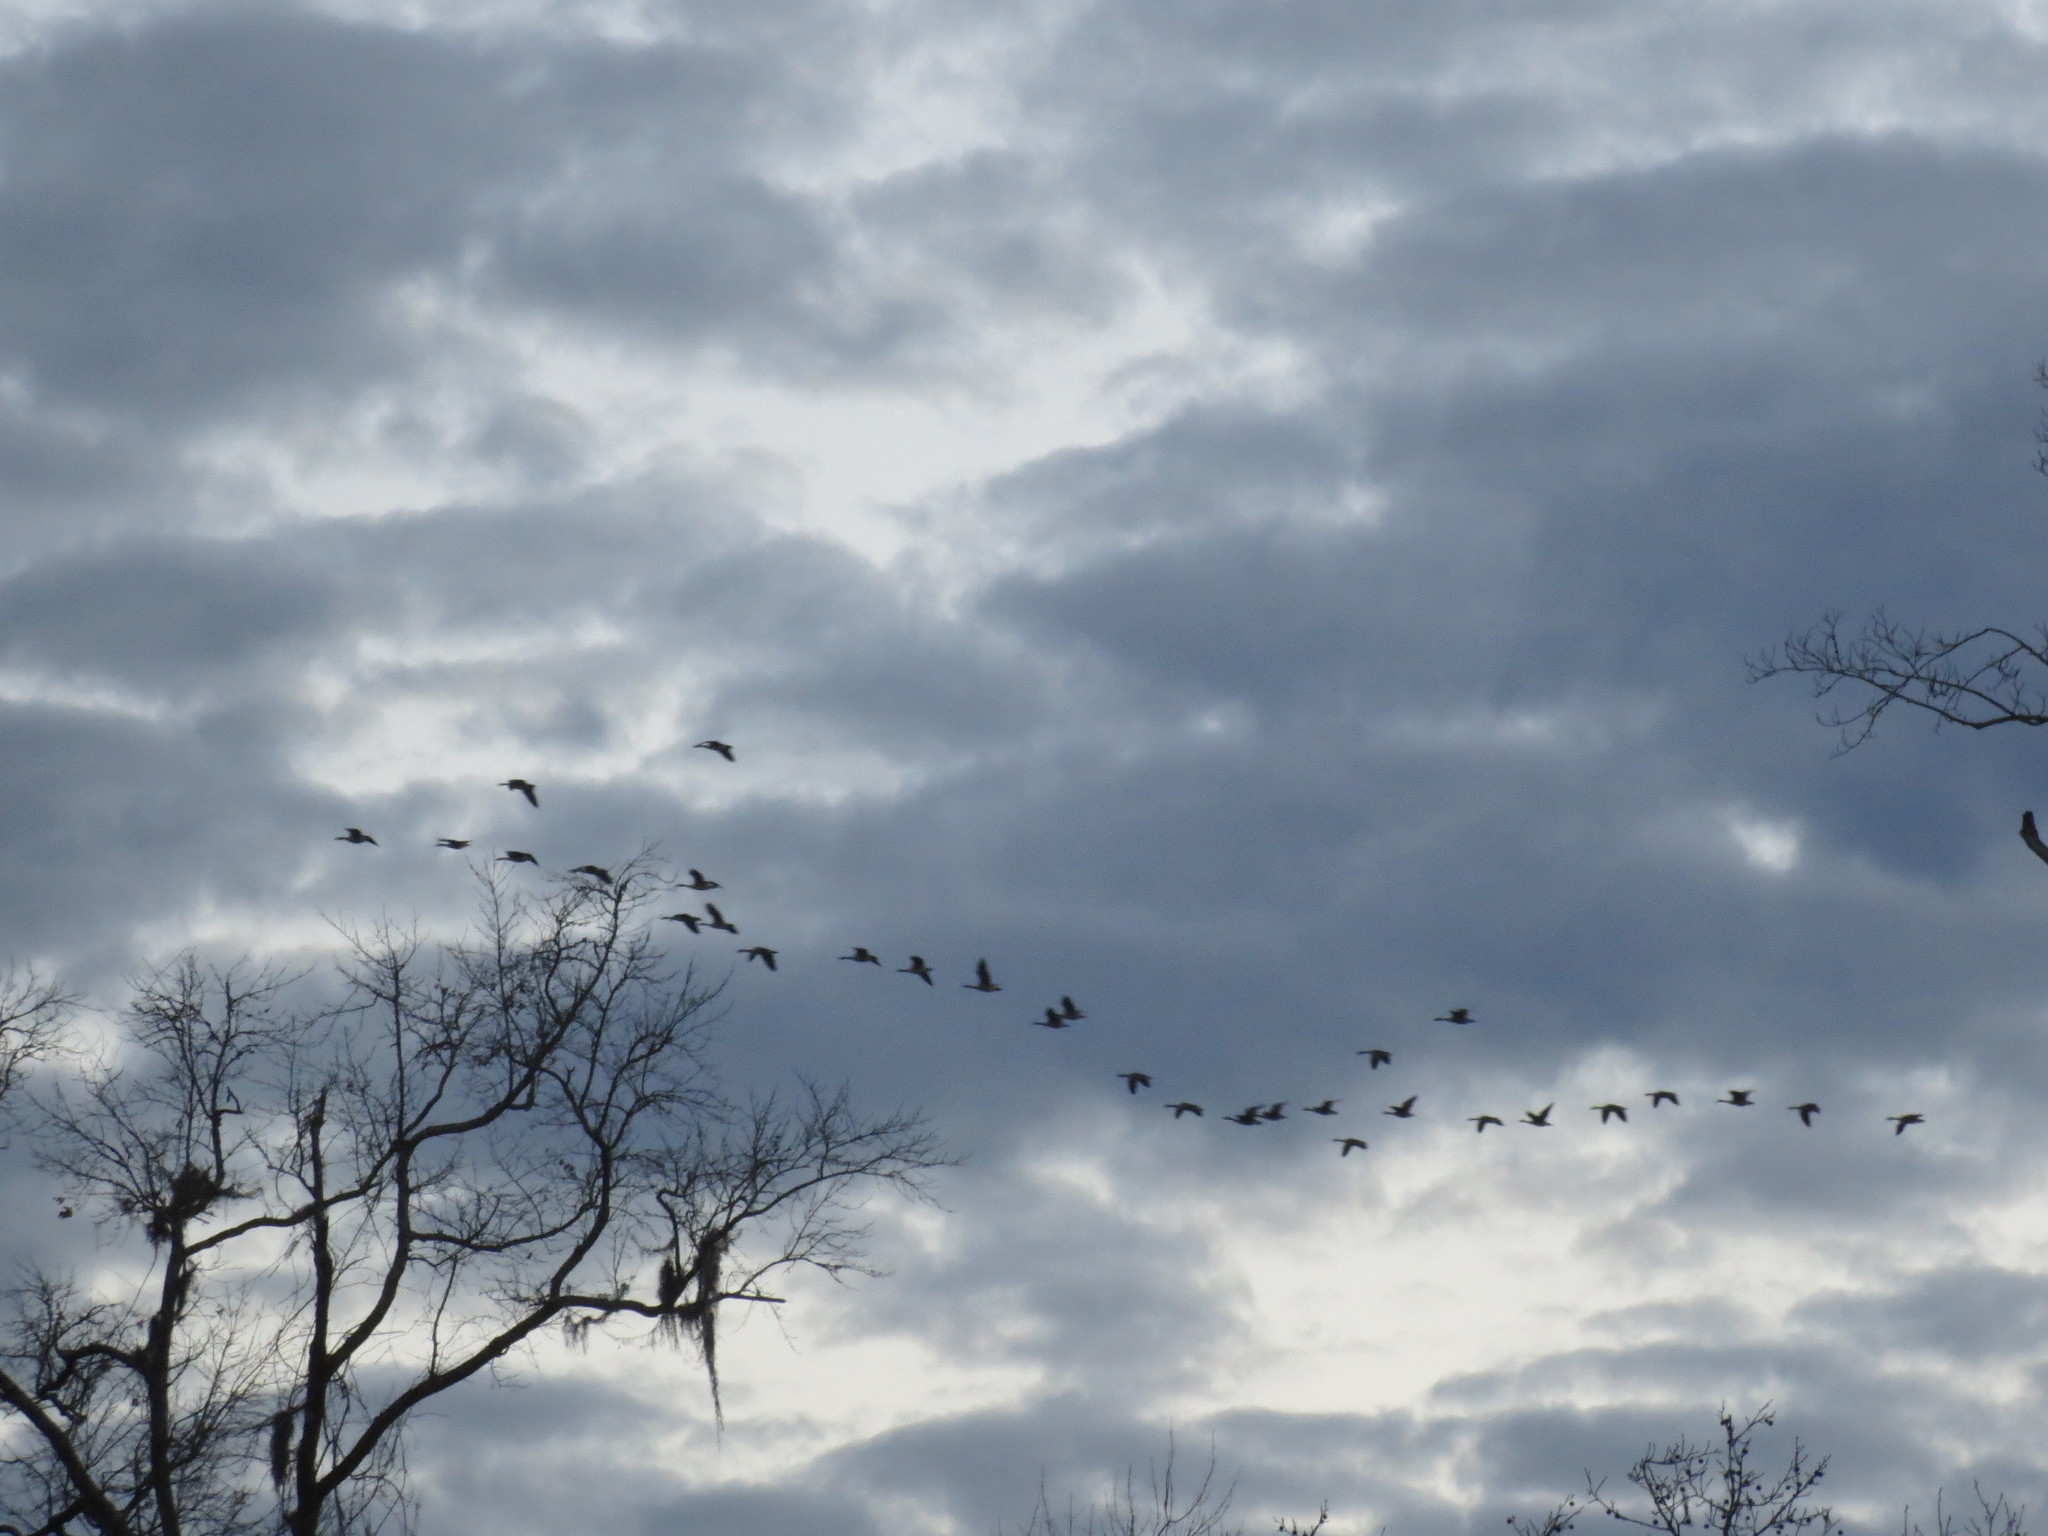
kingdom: Animalia
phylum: Chordata
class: Aves
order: Anseriformes
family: Anatidae
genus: Branta
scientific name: Branta canadensis
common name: Canada goose
